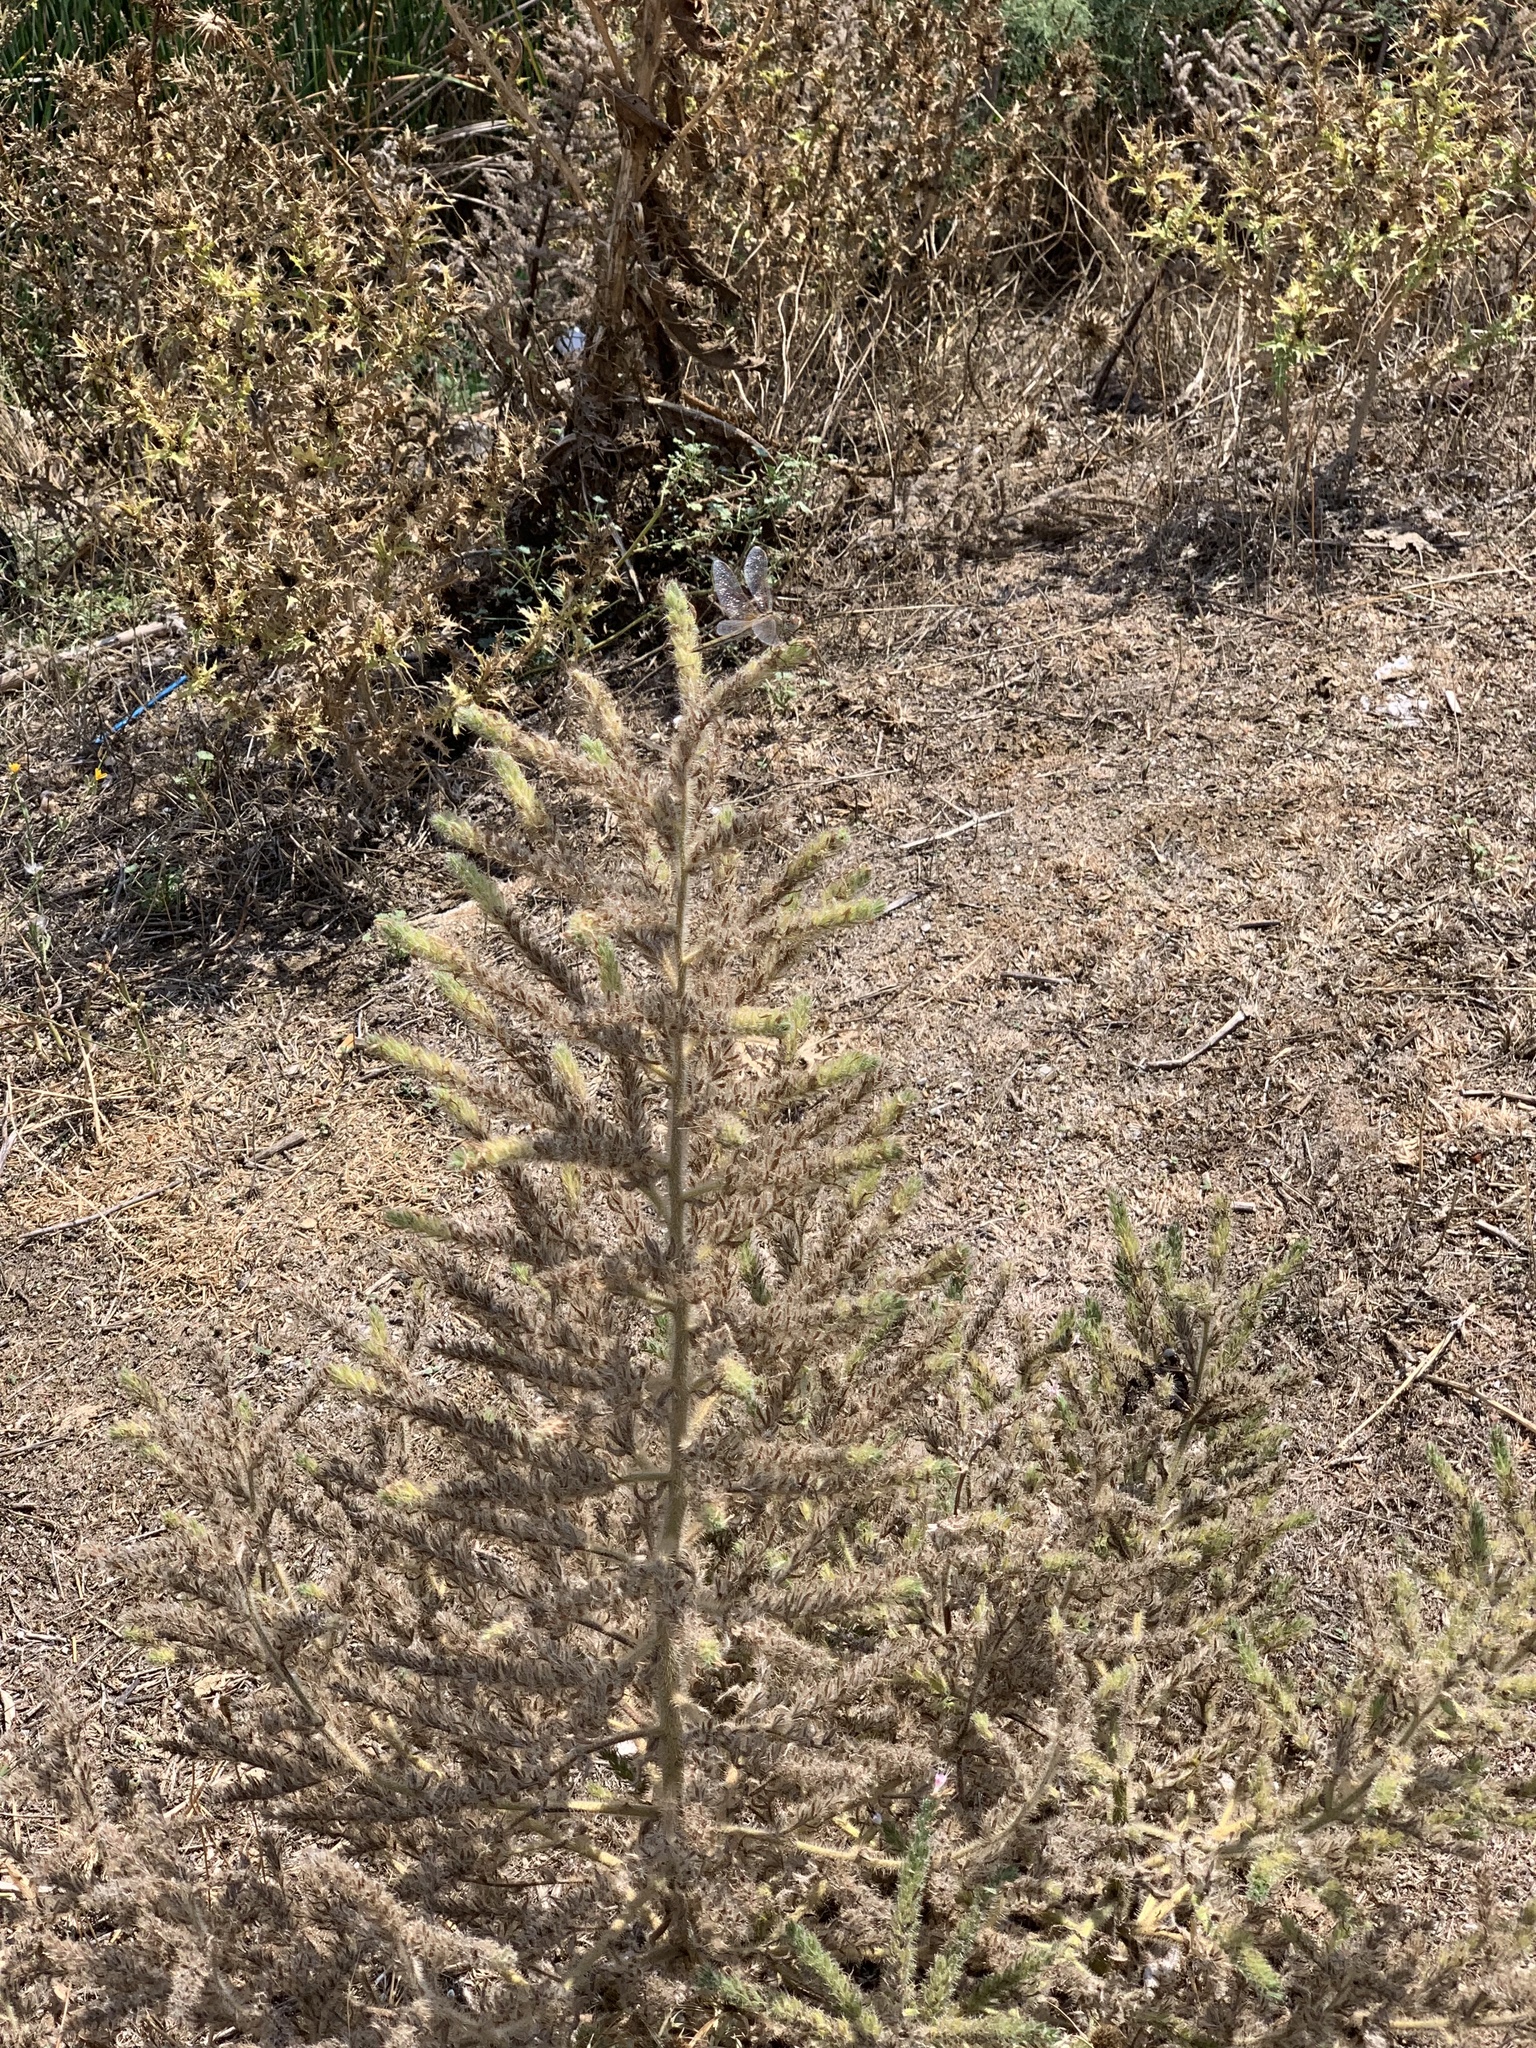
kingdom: Plantae
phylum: Tracheophyta
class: Magnoliopsida
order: Boraginales
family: Boraginaceae
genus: Echium
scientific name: Echium italicum
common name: Italian viper's bugloss
